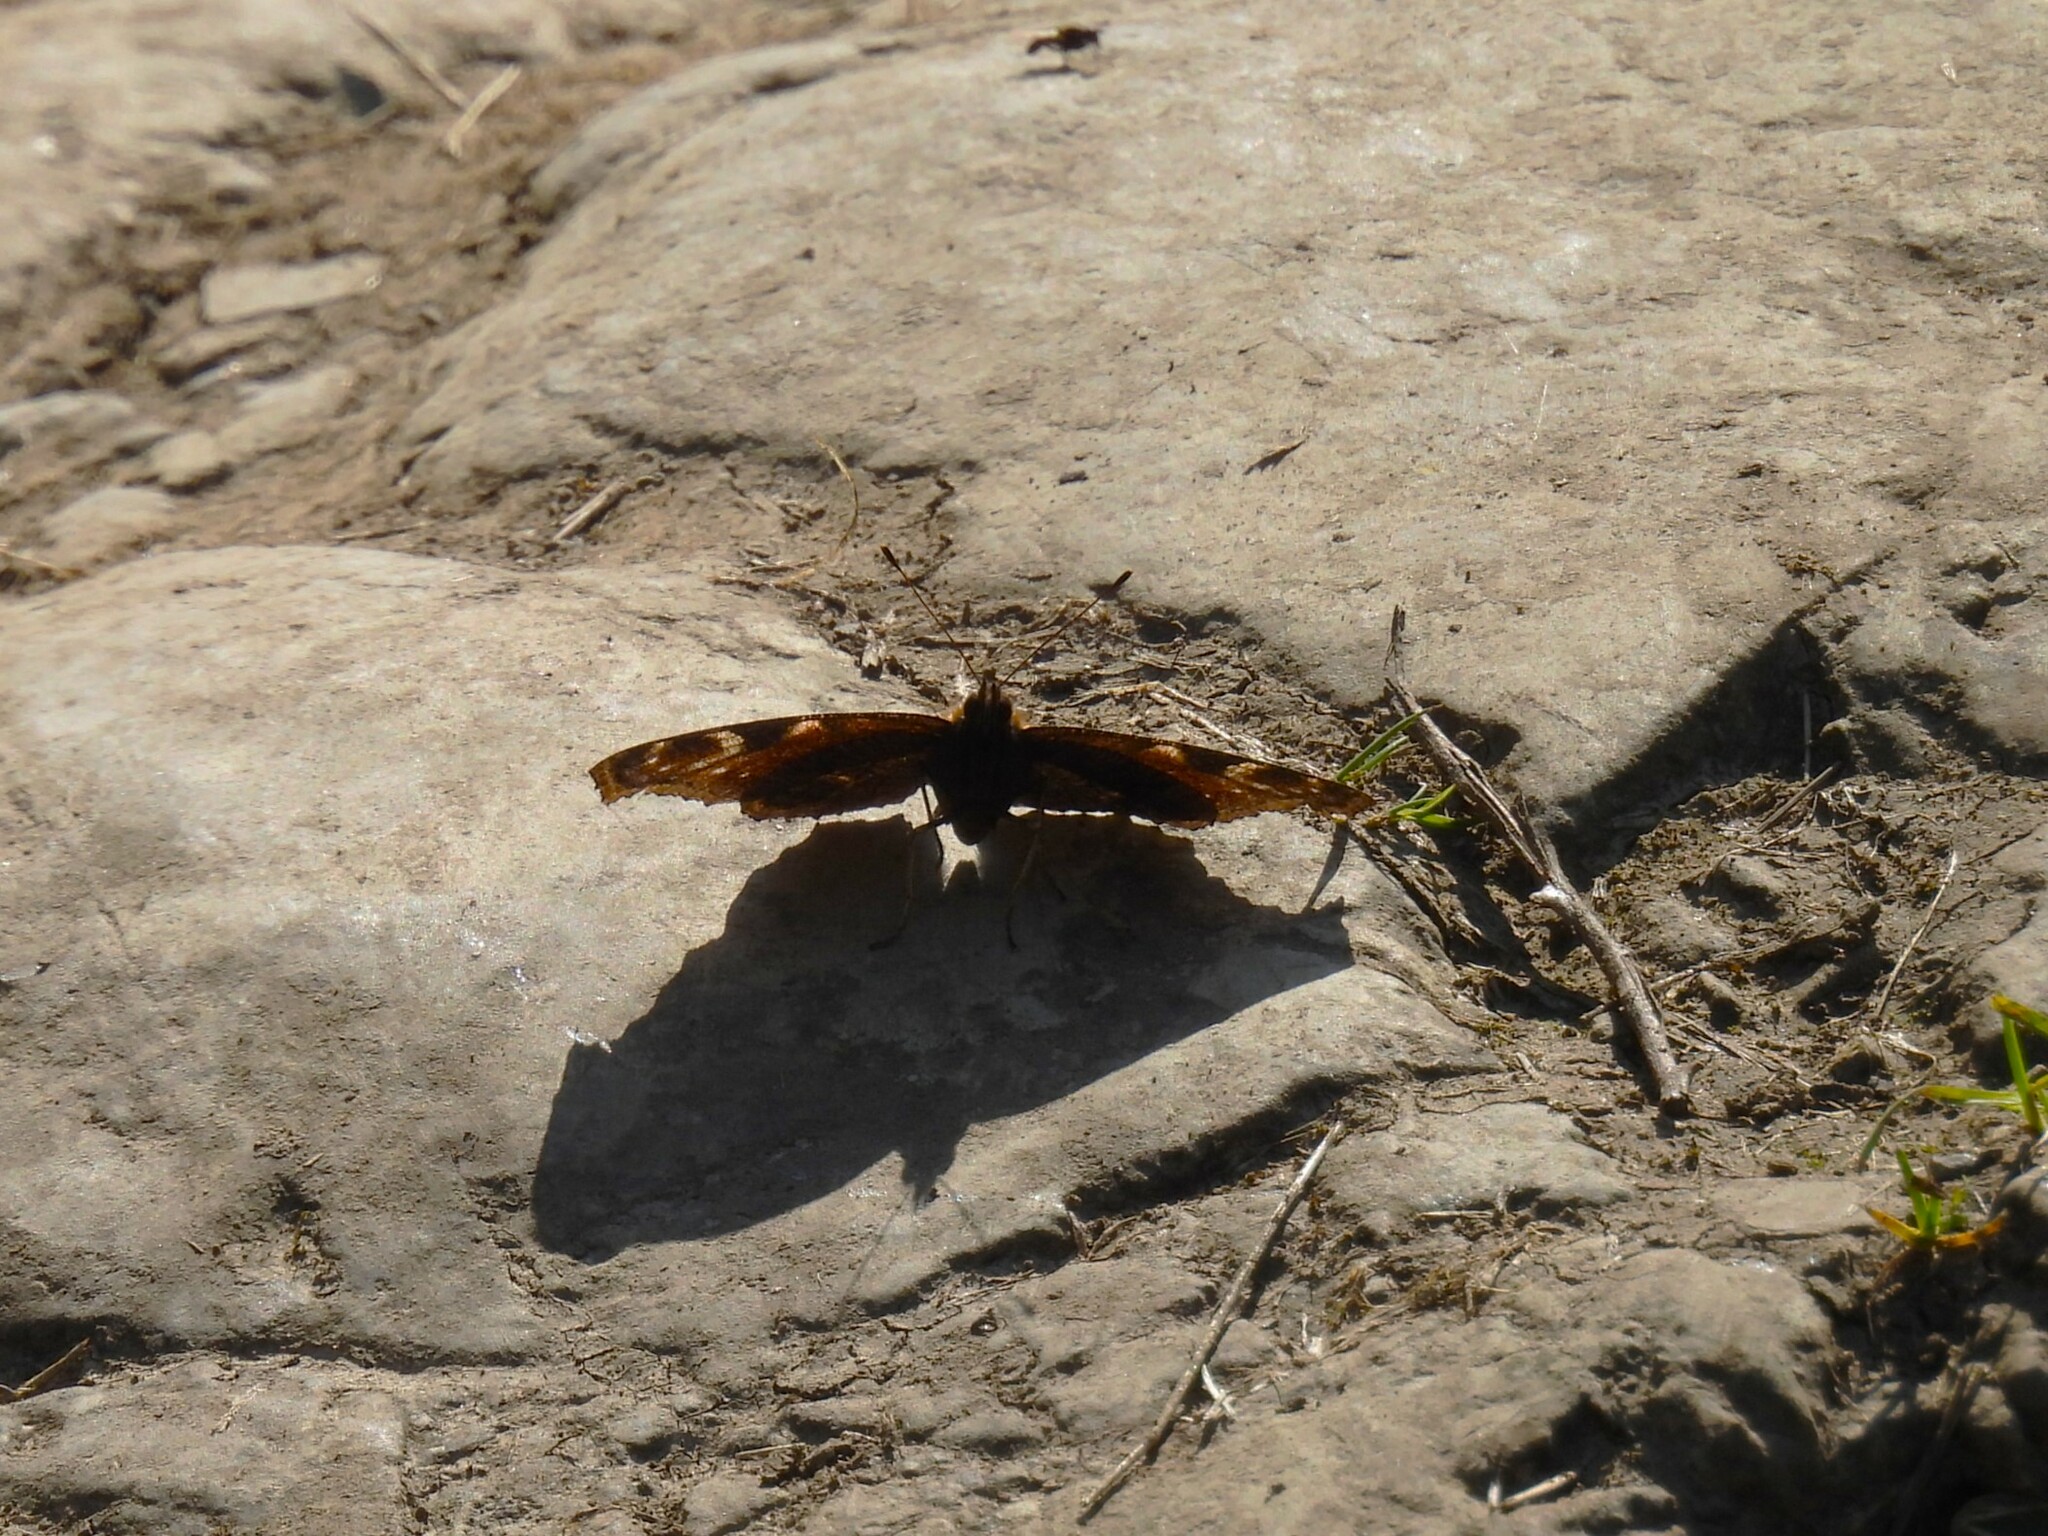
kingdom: Animalia
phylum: Arthropoda
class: Insecta
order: Lepidoptera
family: Nymphalidae
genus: Aglais
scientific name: Aglais io
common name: Peacock
